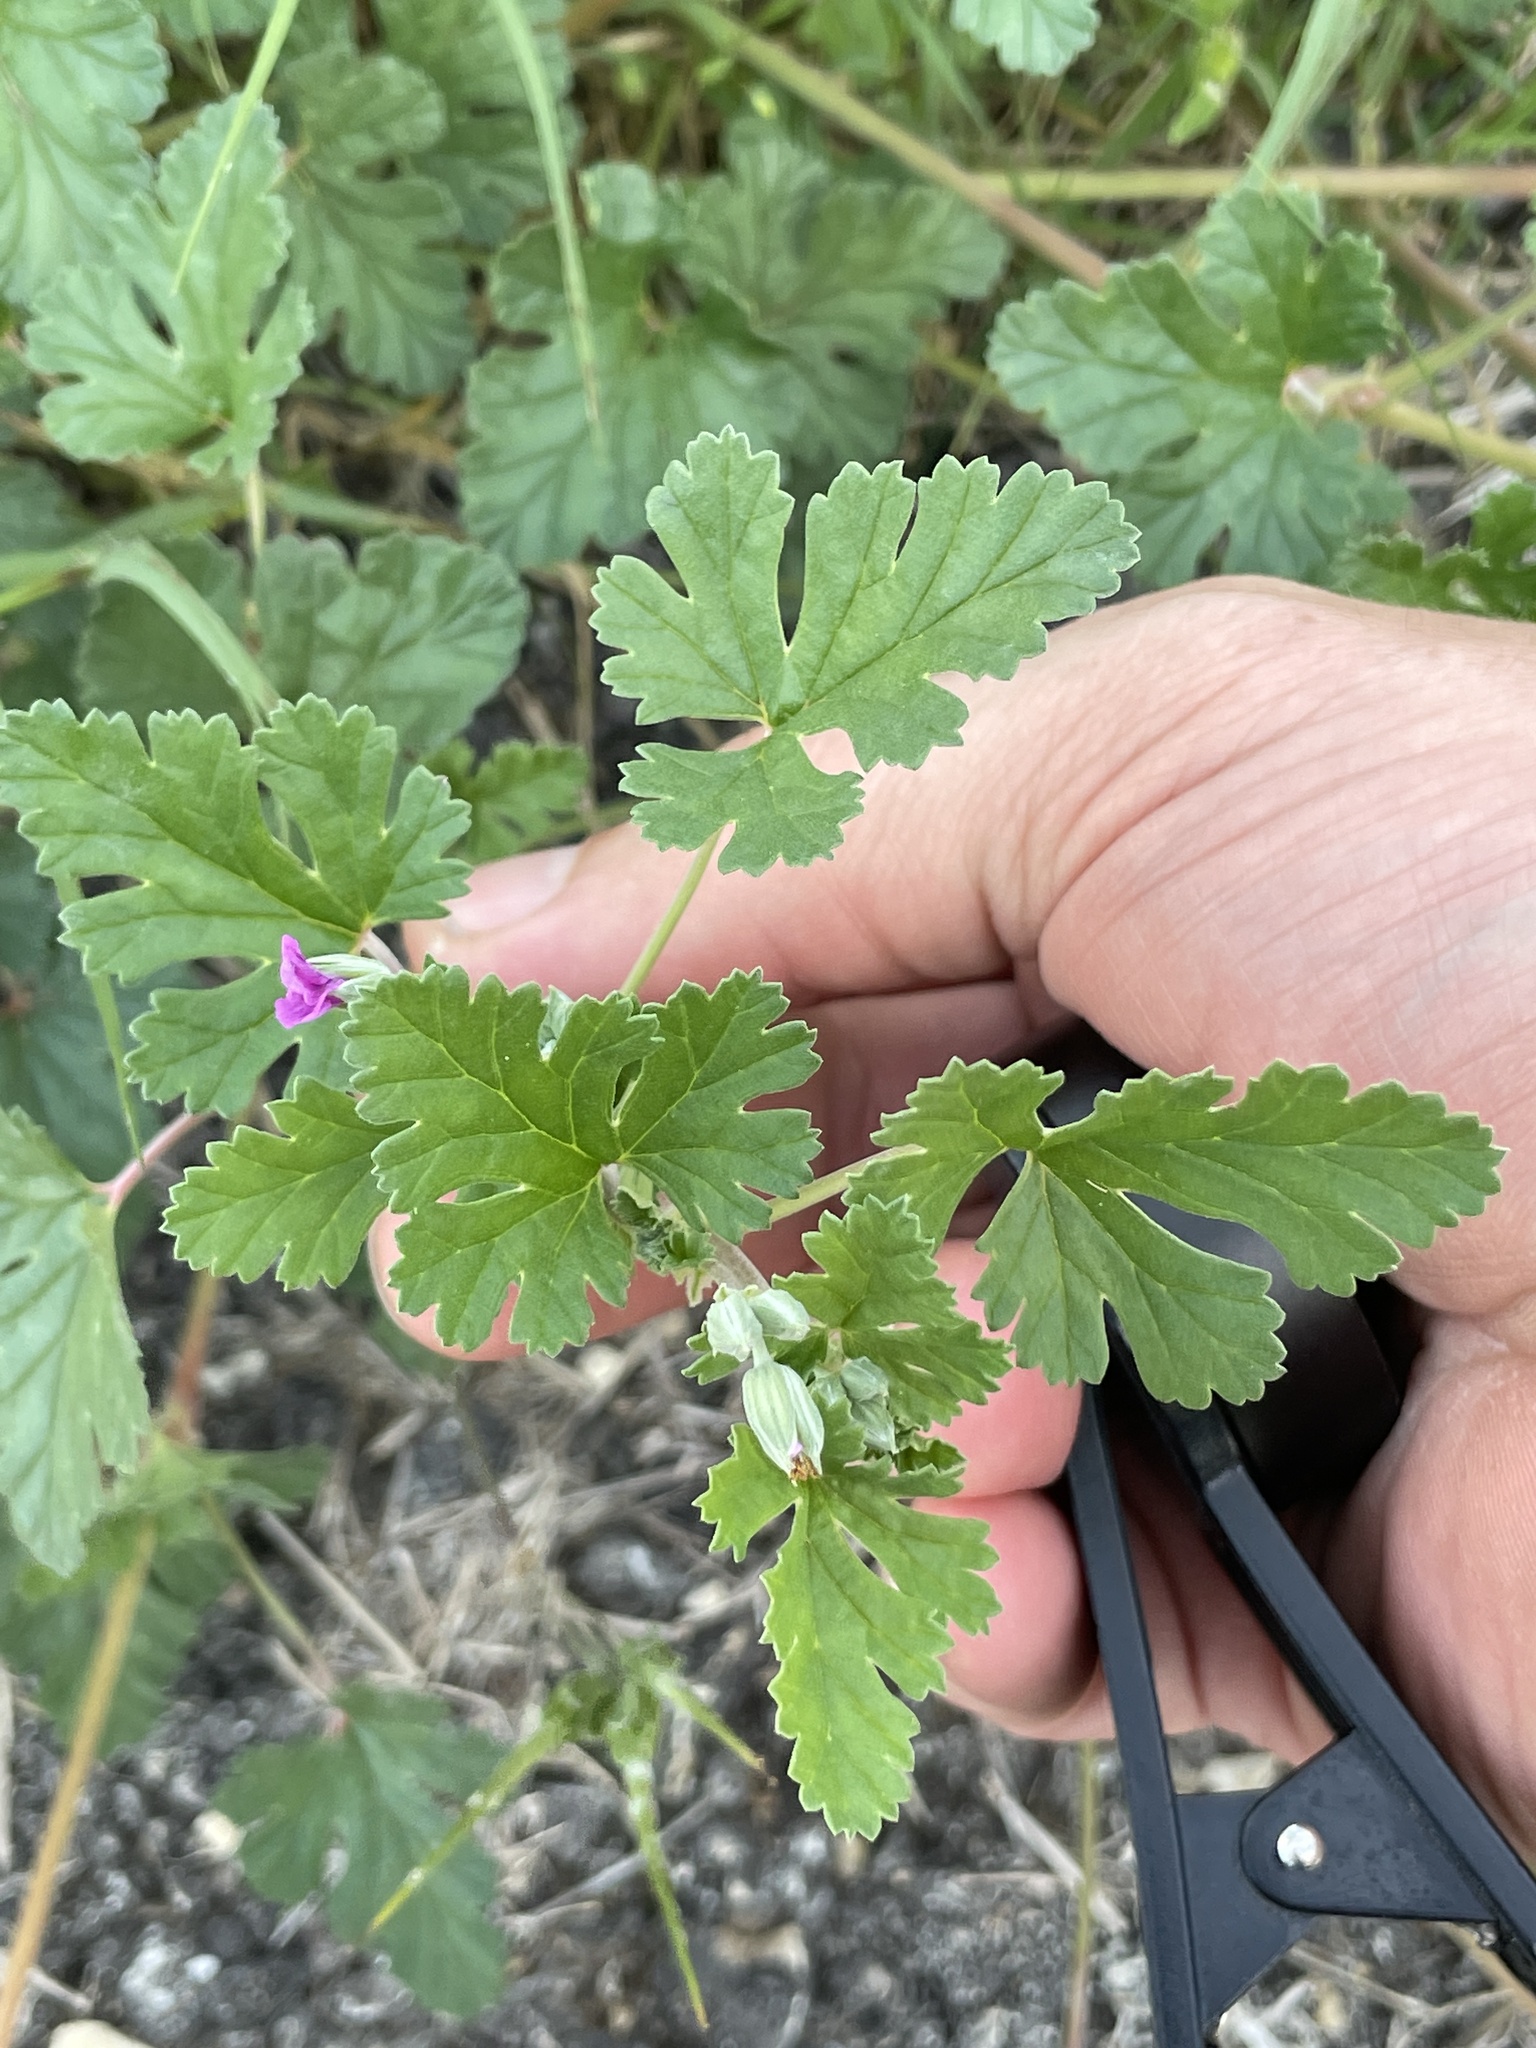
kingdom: Plantae
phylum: Tracheophyta
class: Magnoliopsida
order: Geraniales
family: Geraniaceae
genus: Erodium
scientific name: Erodium texanum
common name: Texas stork's-bill
